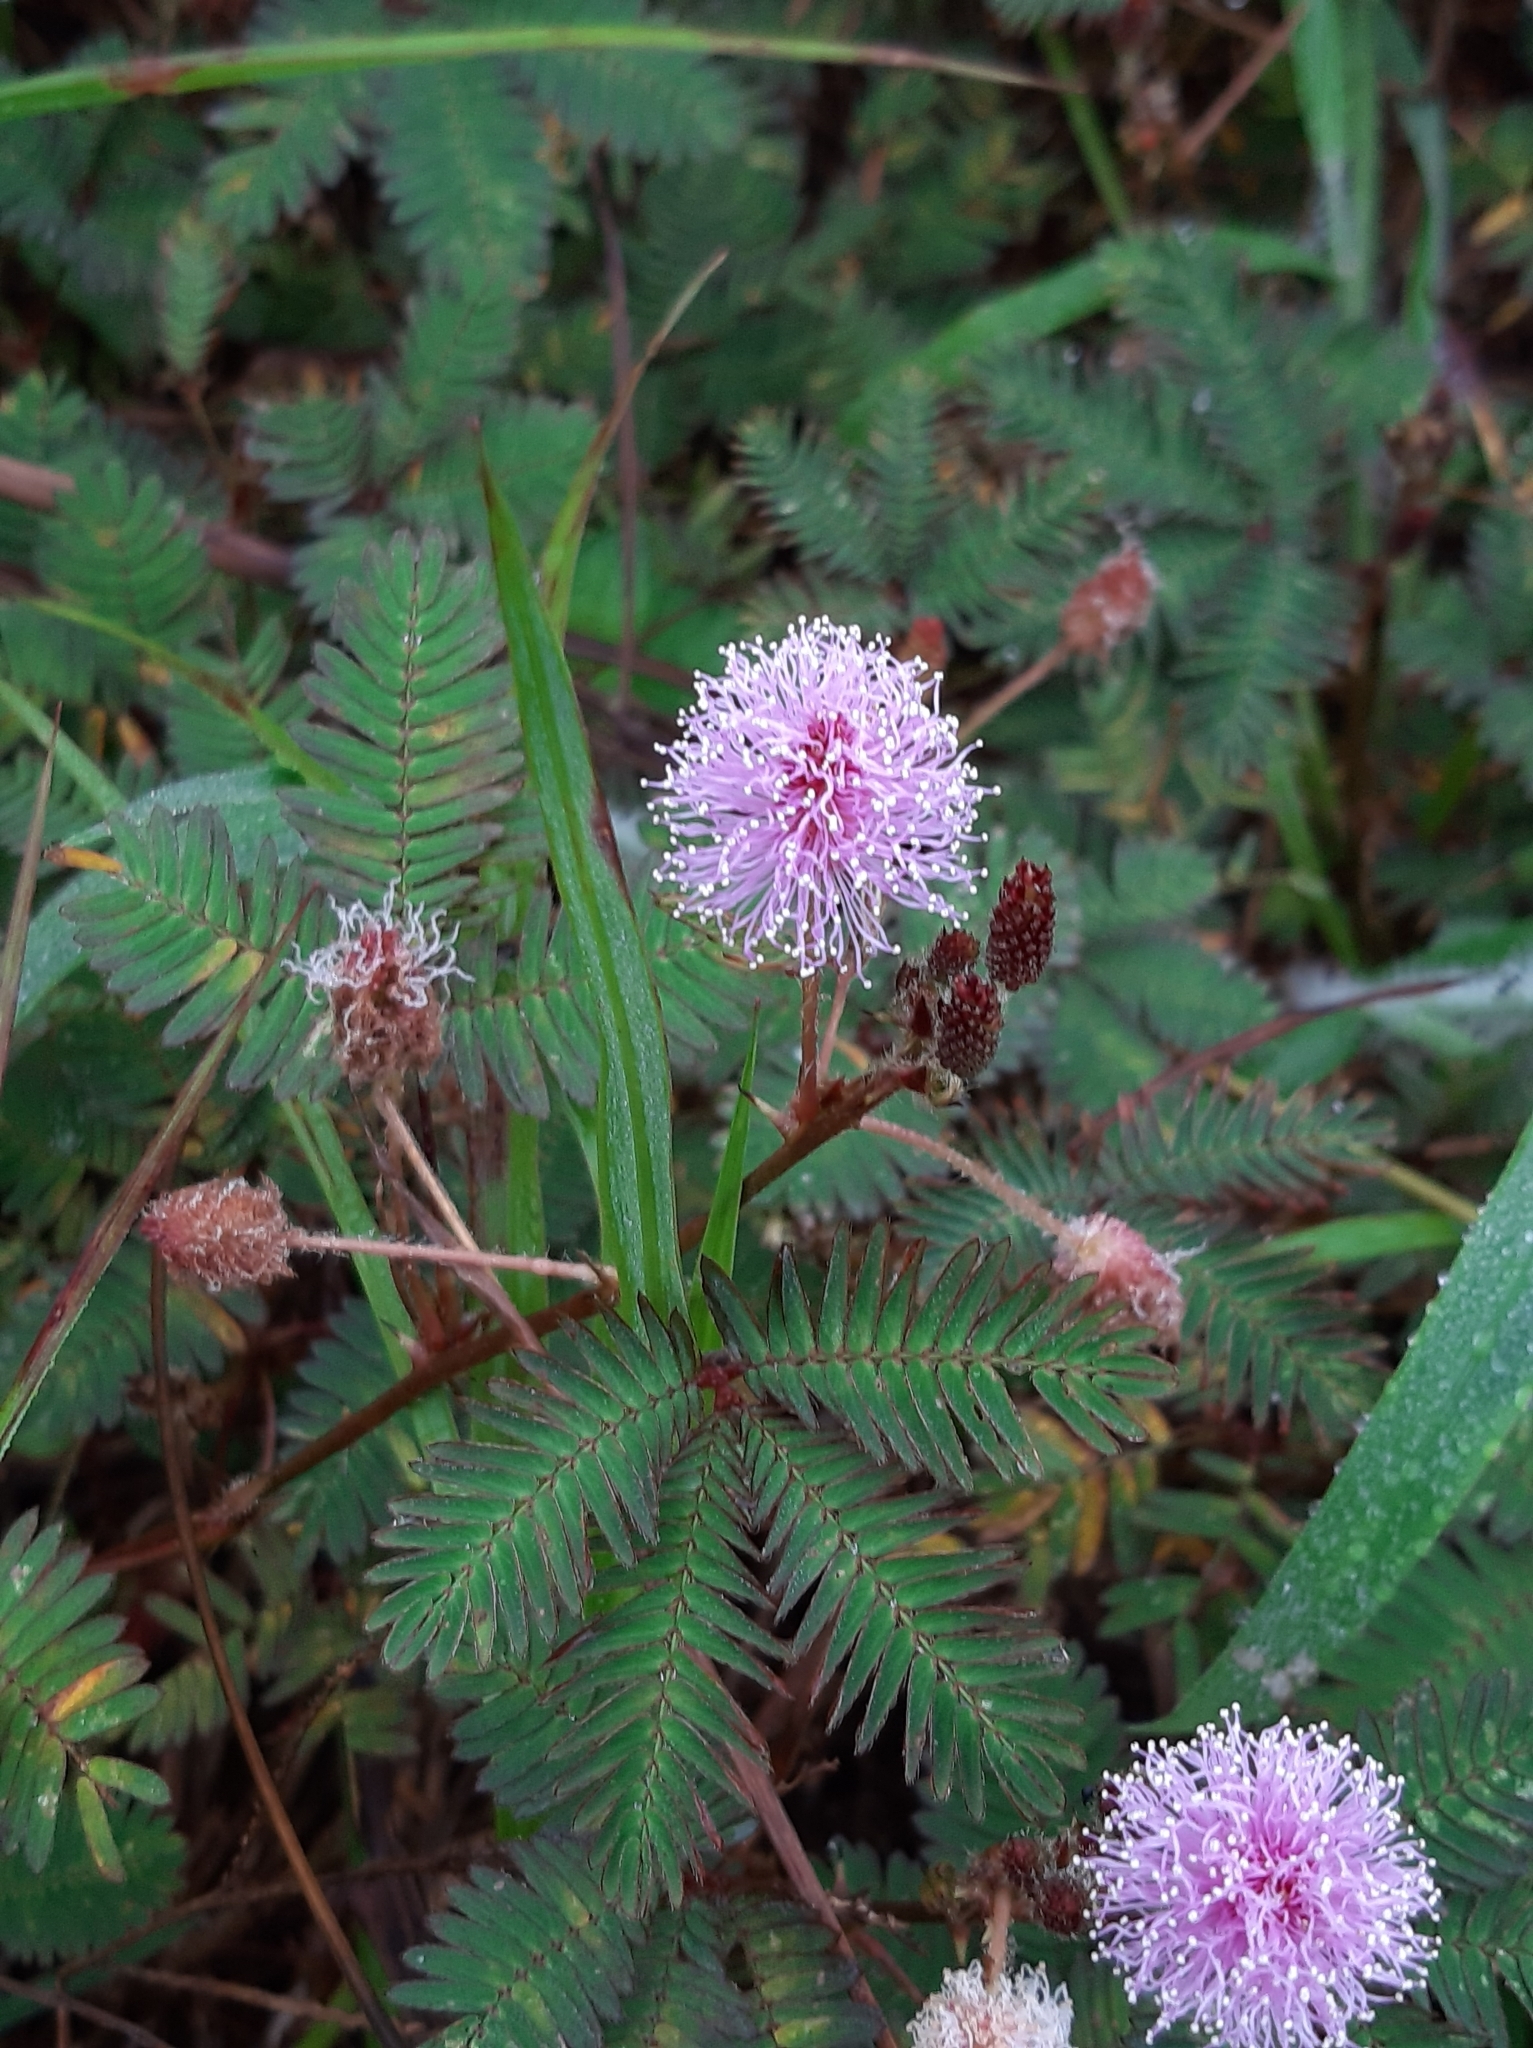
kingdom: Plantae
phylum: Tracheophyta
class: Magnoliopsida
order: Fabales
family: Fabaceae
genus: Mimosa
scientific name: Mimosa pudica
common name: Sensitive plant
